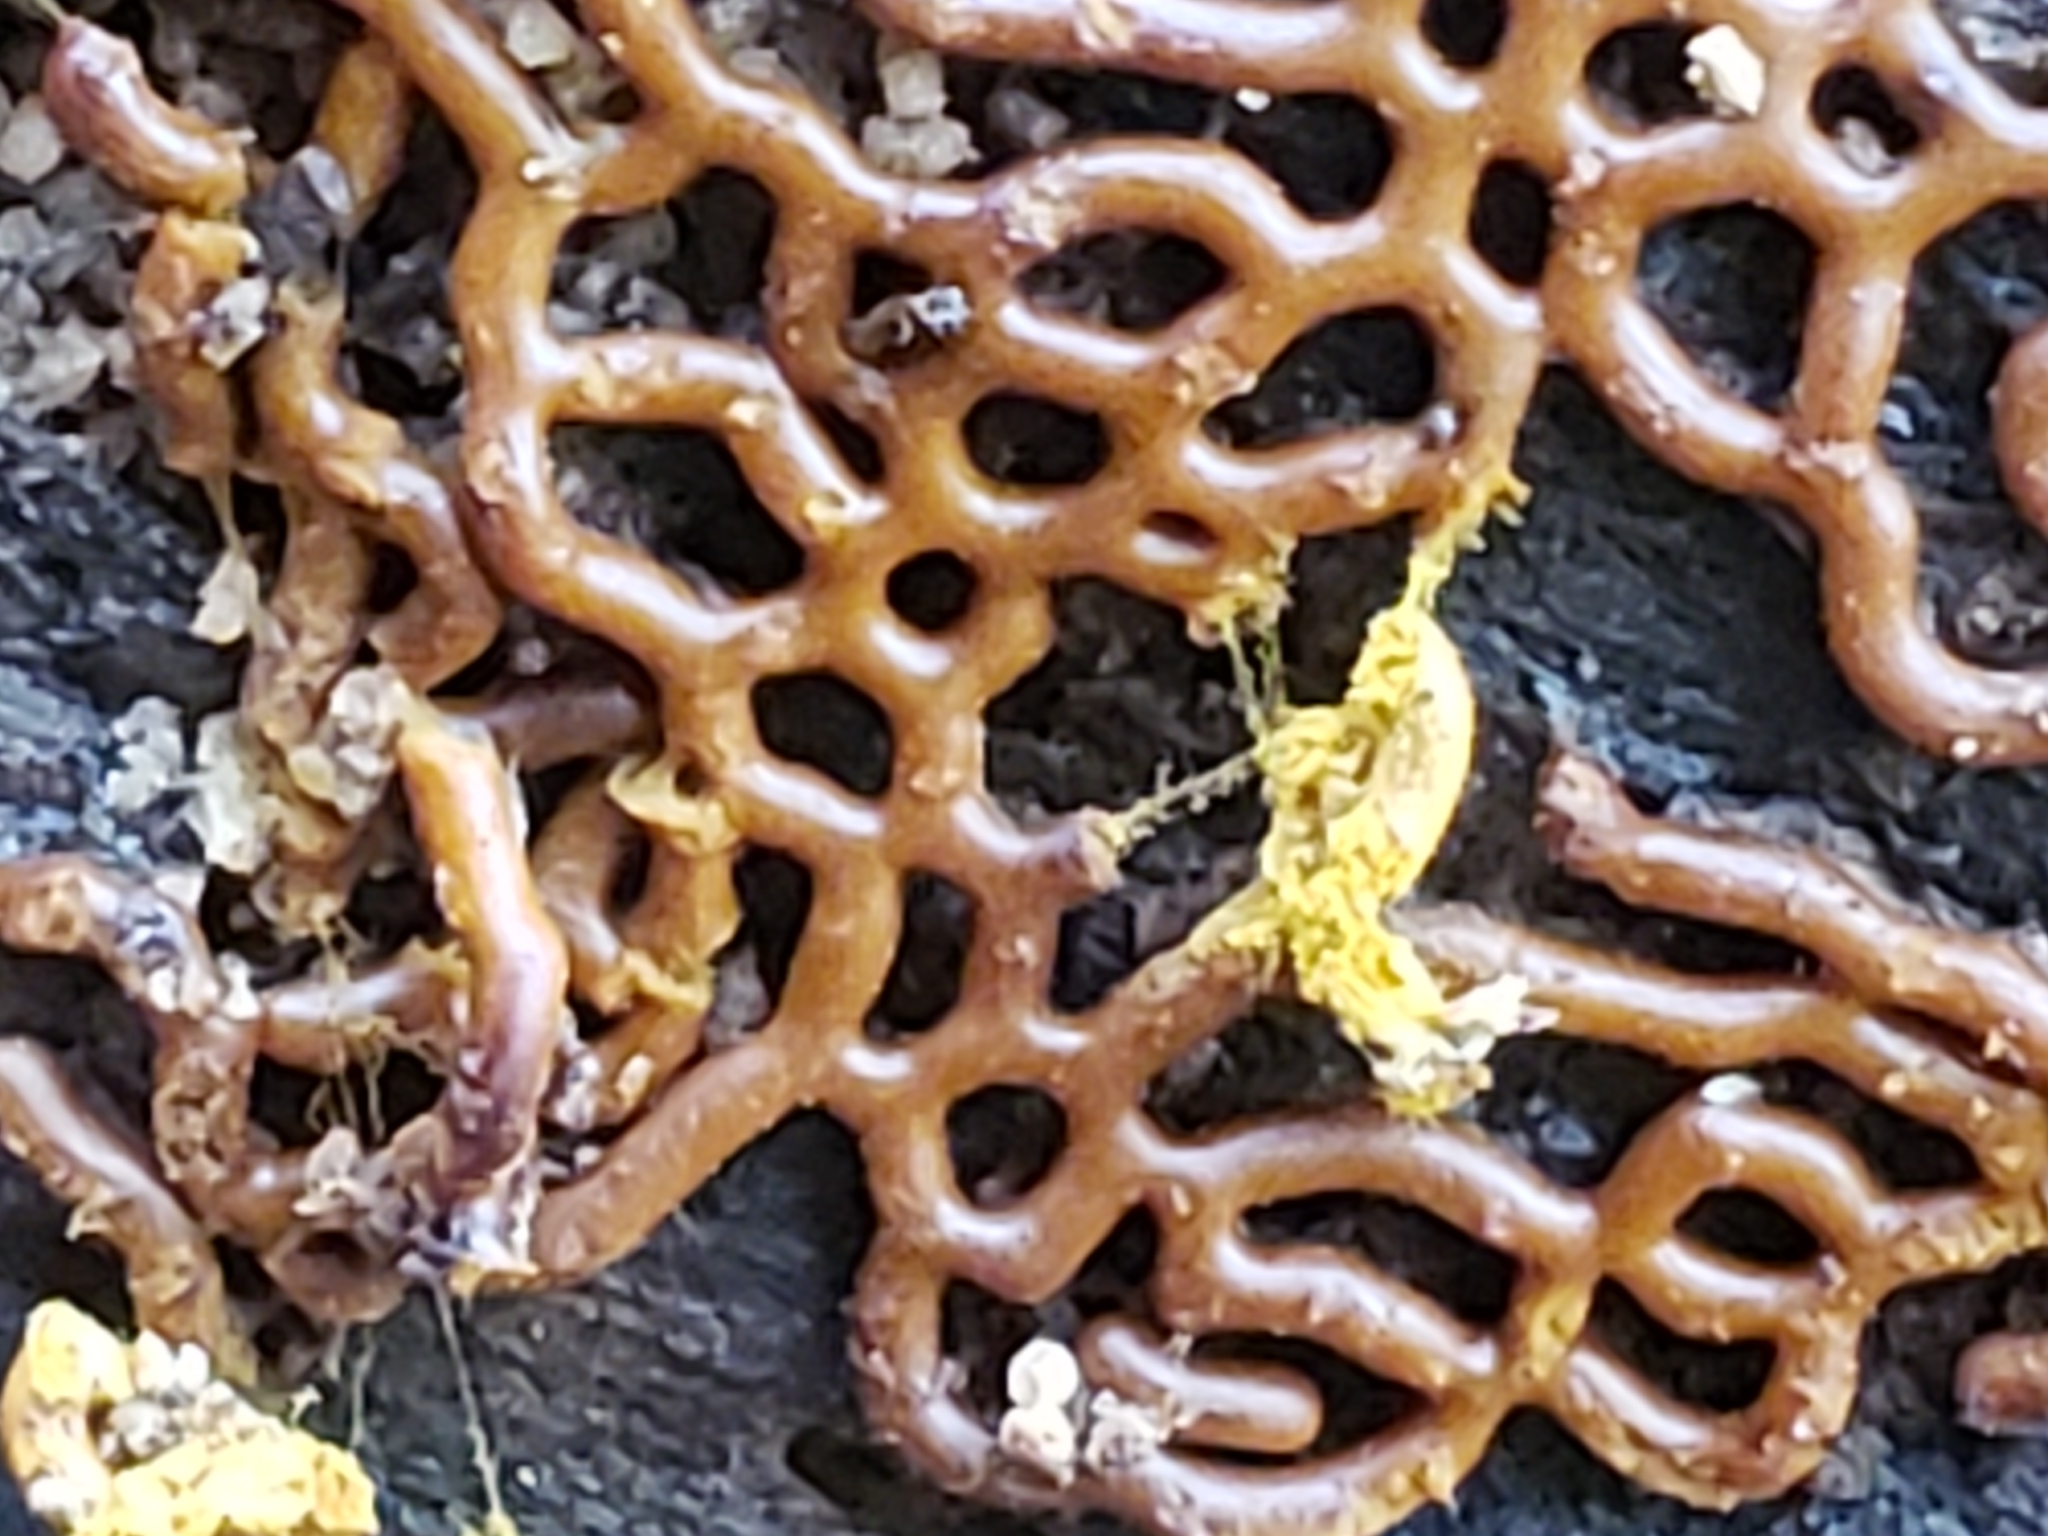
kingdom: Protozoa
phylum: Mycetozoa
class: Myxomycetes
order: Trichiales
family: Arcyriaceae
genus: Hemitrichia
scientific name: Hemitrichia serpula
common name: Pretzel slime mold
